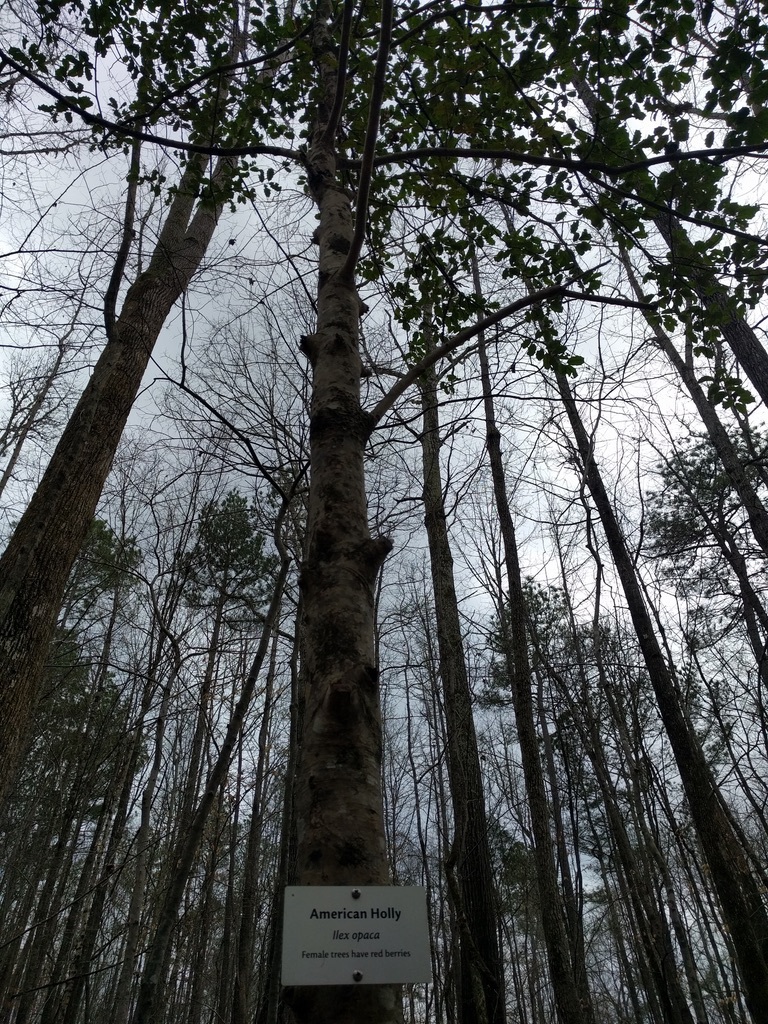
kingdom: Plantae
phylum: Tracheophyta
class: Magnoliopsida
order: Aquifoliales
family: Aquifoliaceae
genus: Ilex
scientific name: Ilex opaca
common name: American holly
